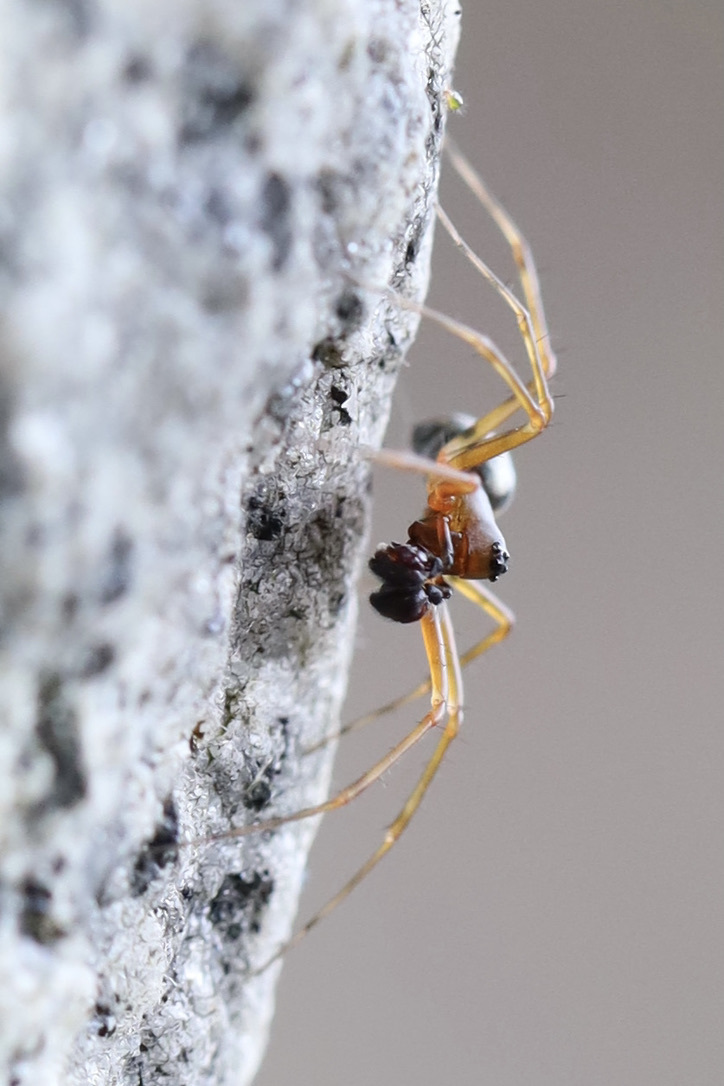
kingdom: Animalia
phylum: Arthropoda
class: Arachnida
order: Araneae
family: Linyphiidae
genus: Neriene
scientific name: Neriene digna
